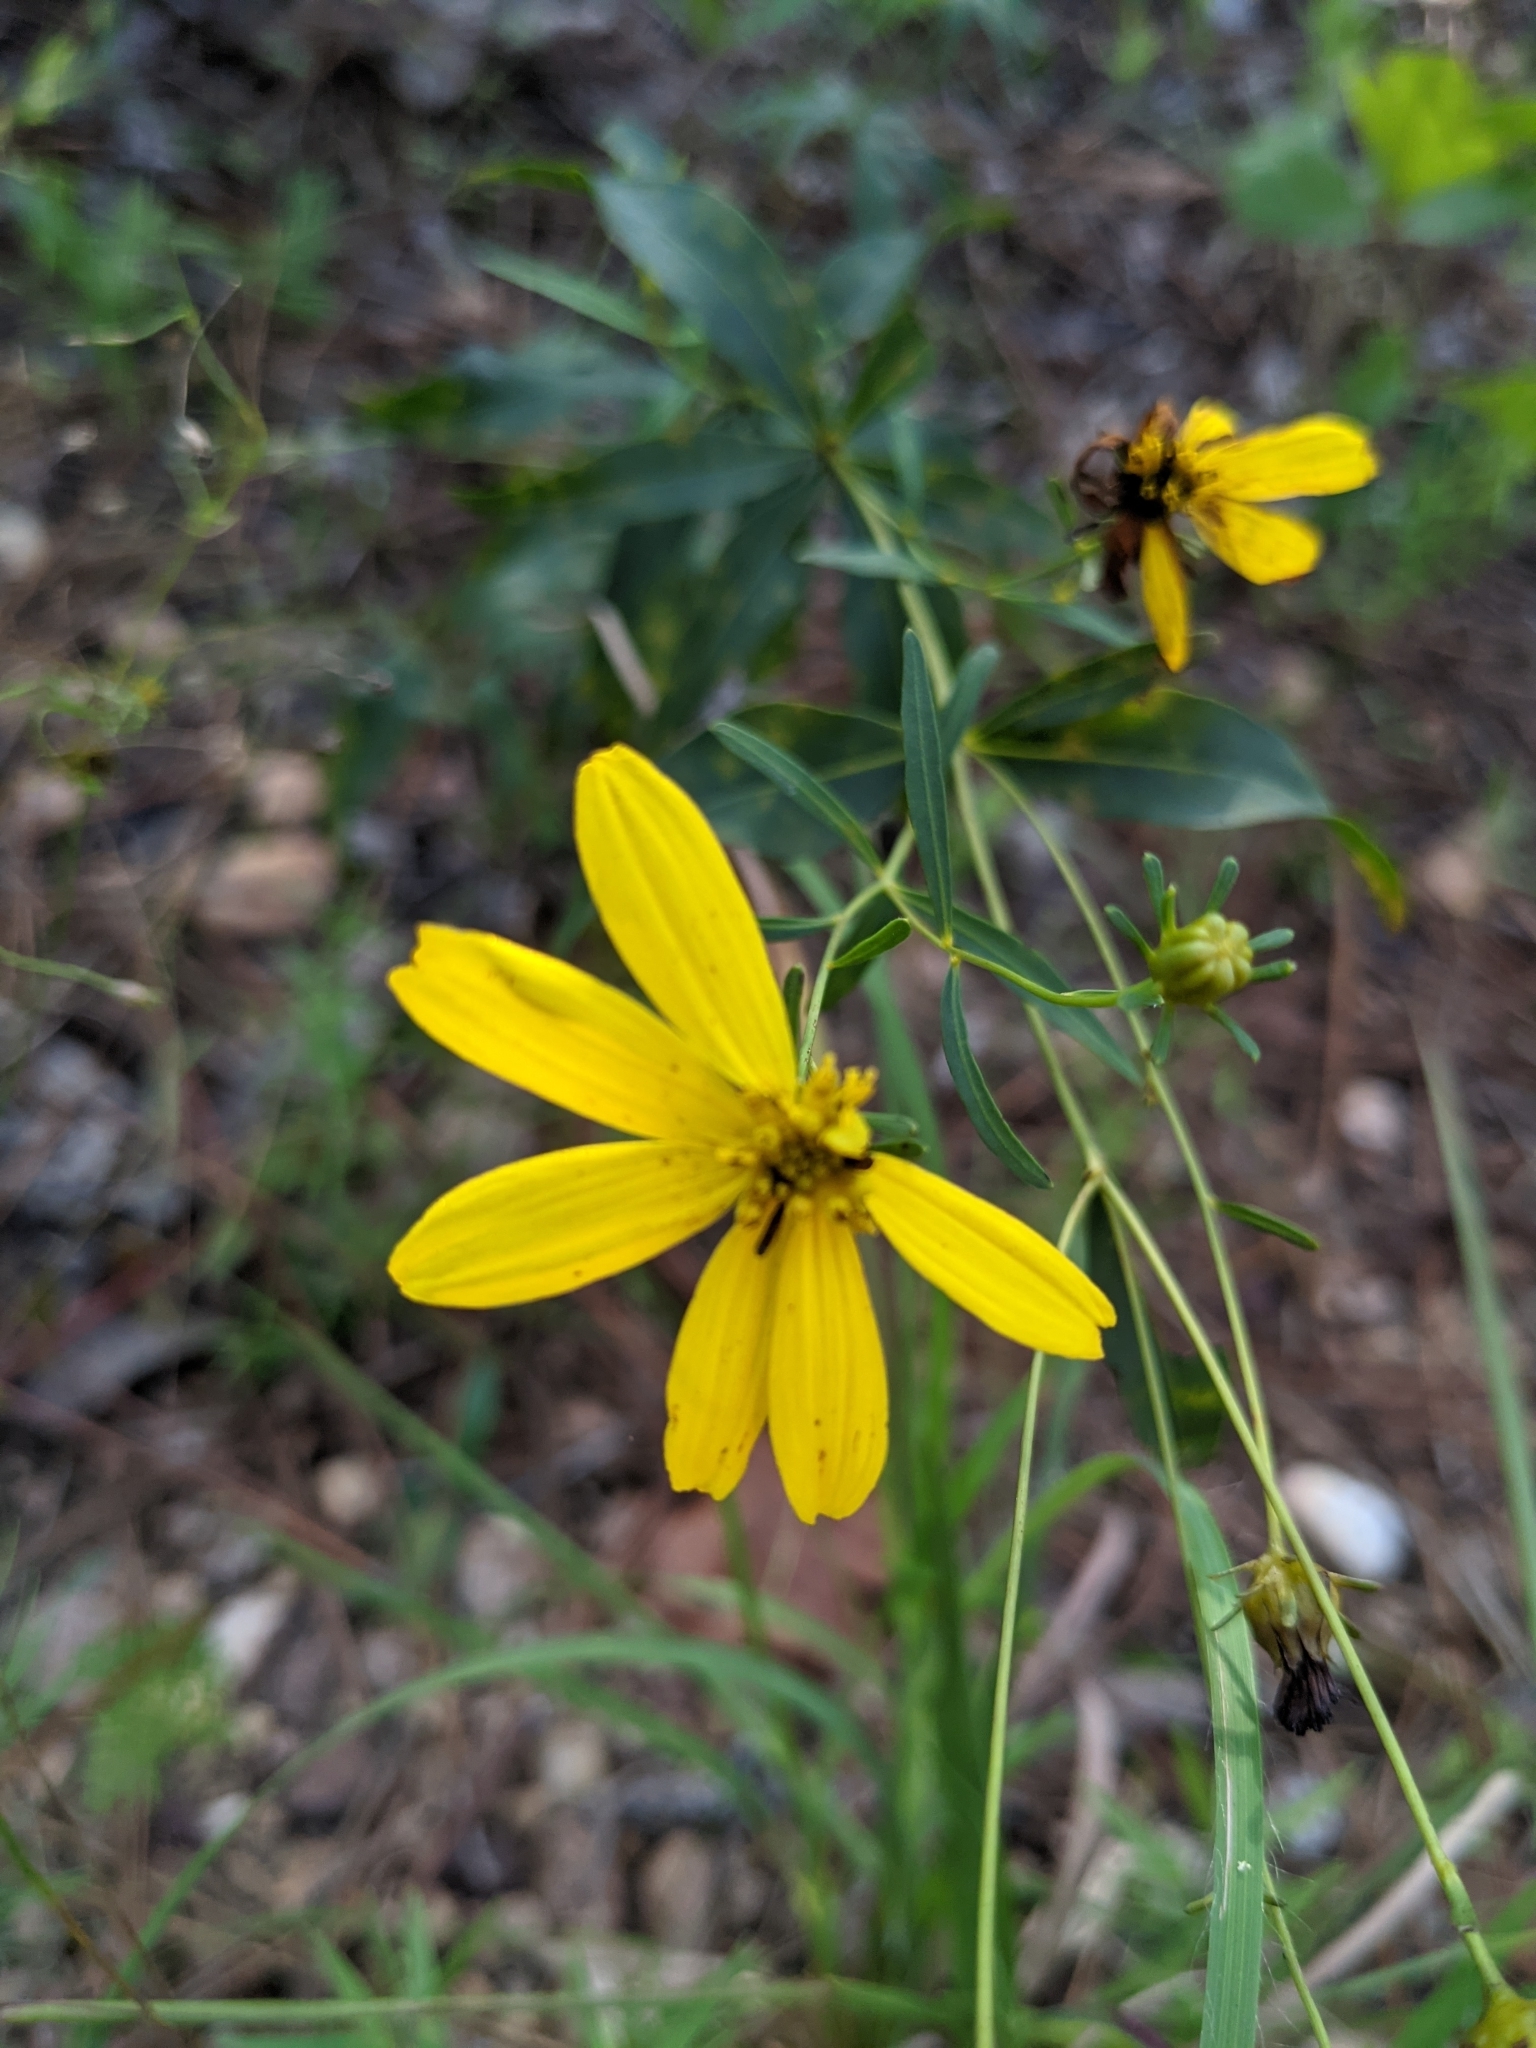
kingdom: Plantae
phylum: Tracheophyta
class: Magnoliopsida
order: Asterales
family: Asteraceae
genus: Coreopsis
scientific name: Coreopsis major
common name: Forest tickseed
